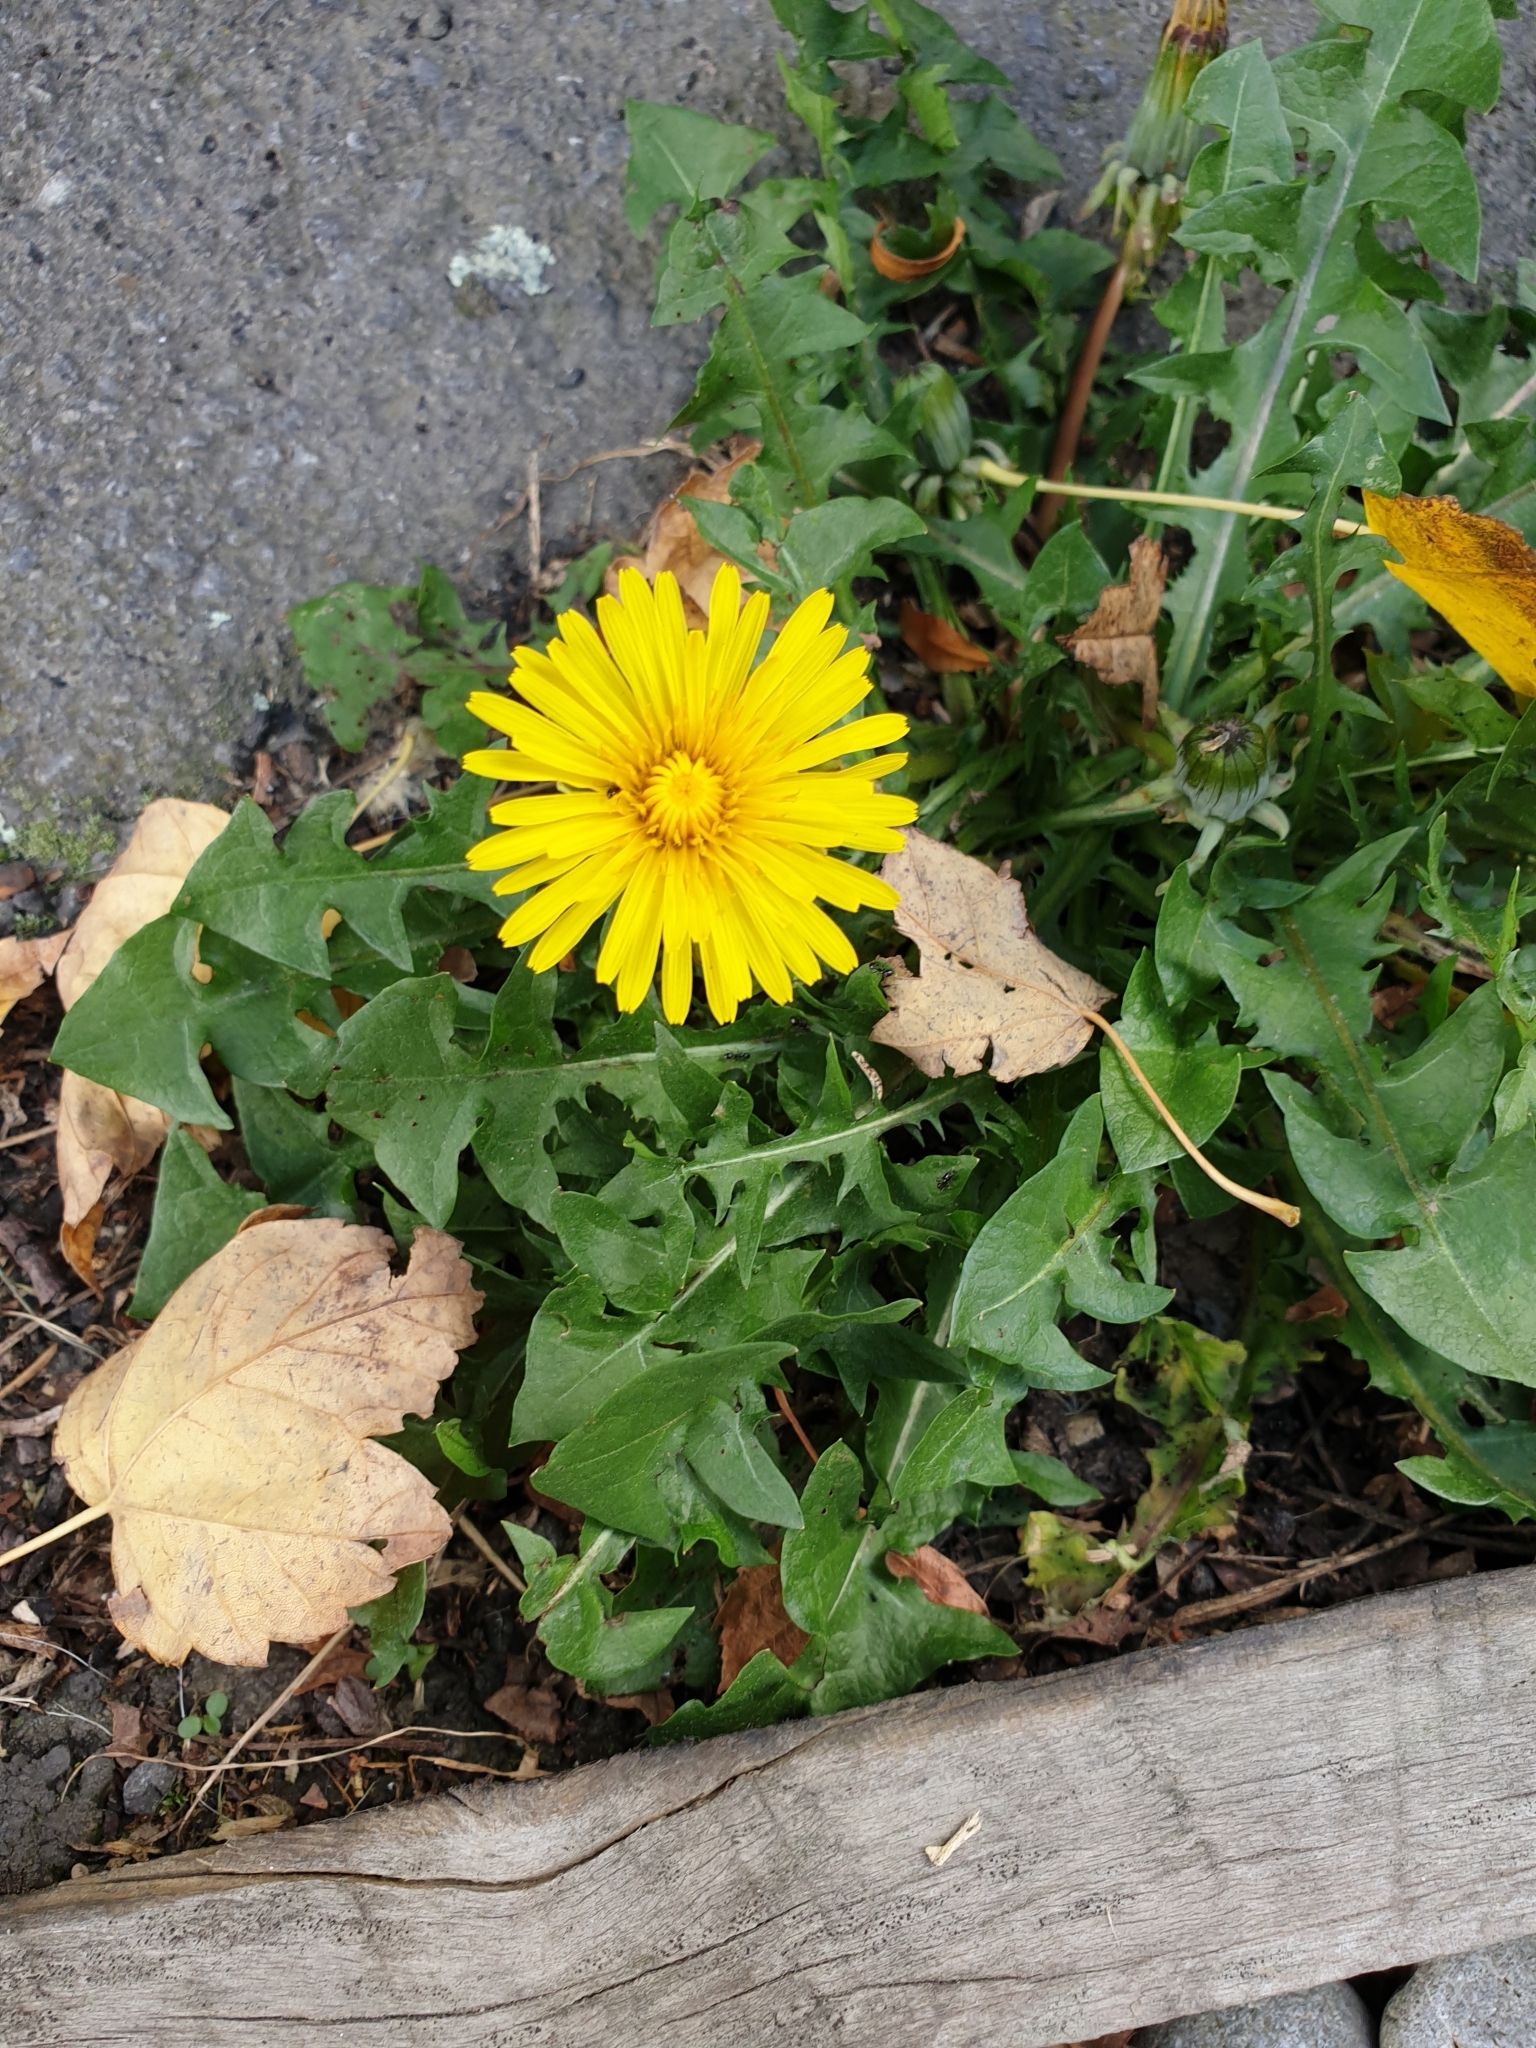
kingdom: Plantae
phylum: Tracheophyta
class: Magnoliopsida
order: Asterales
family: Asteraceae
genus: Taraxacum
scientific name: Taraxacum officinale
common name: Common dandelion
